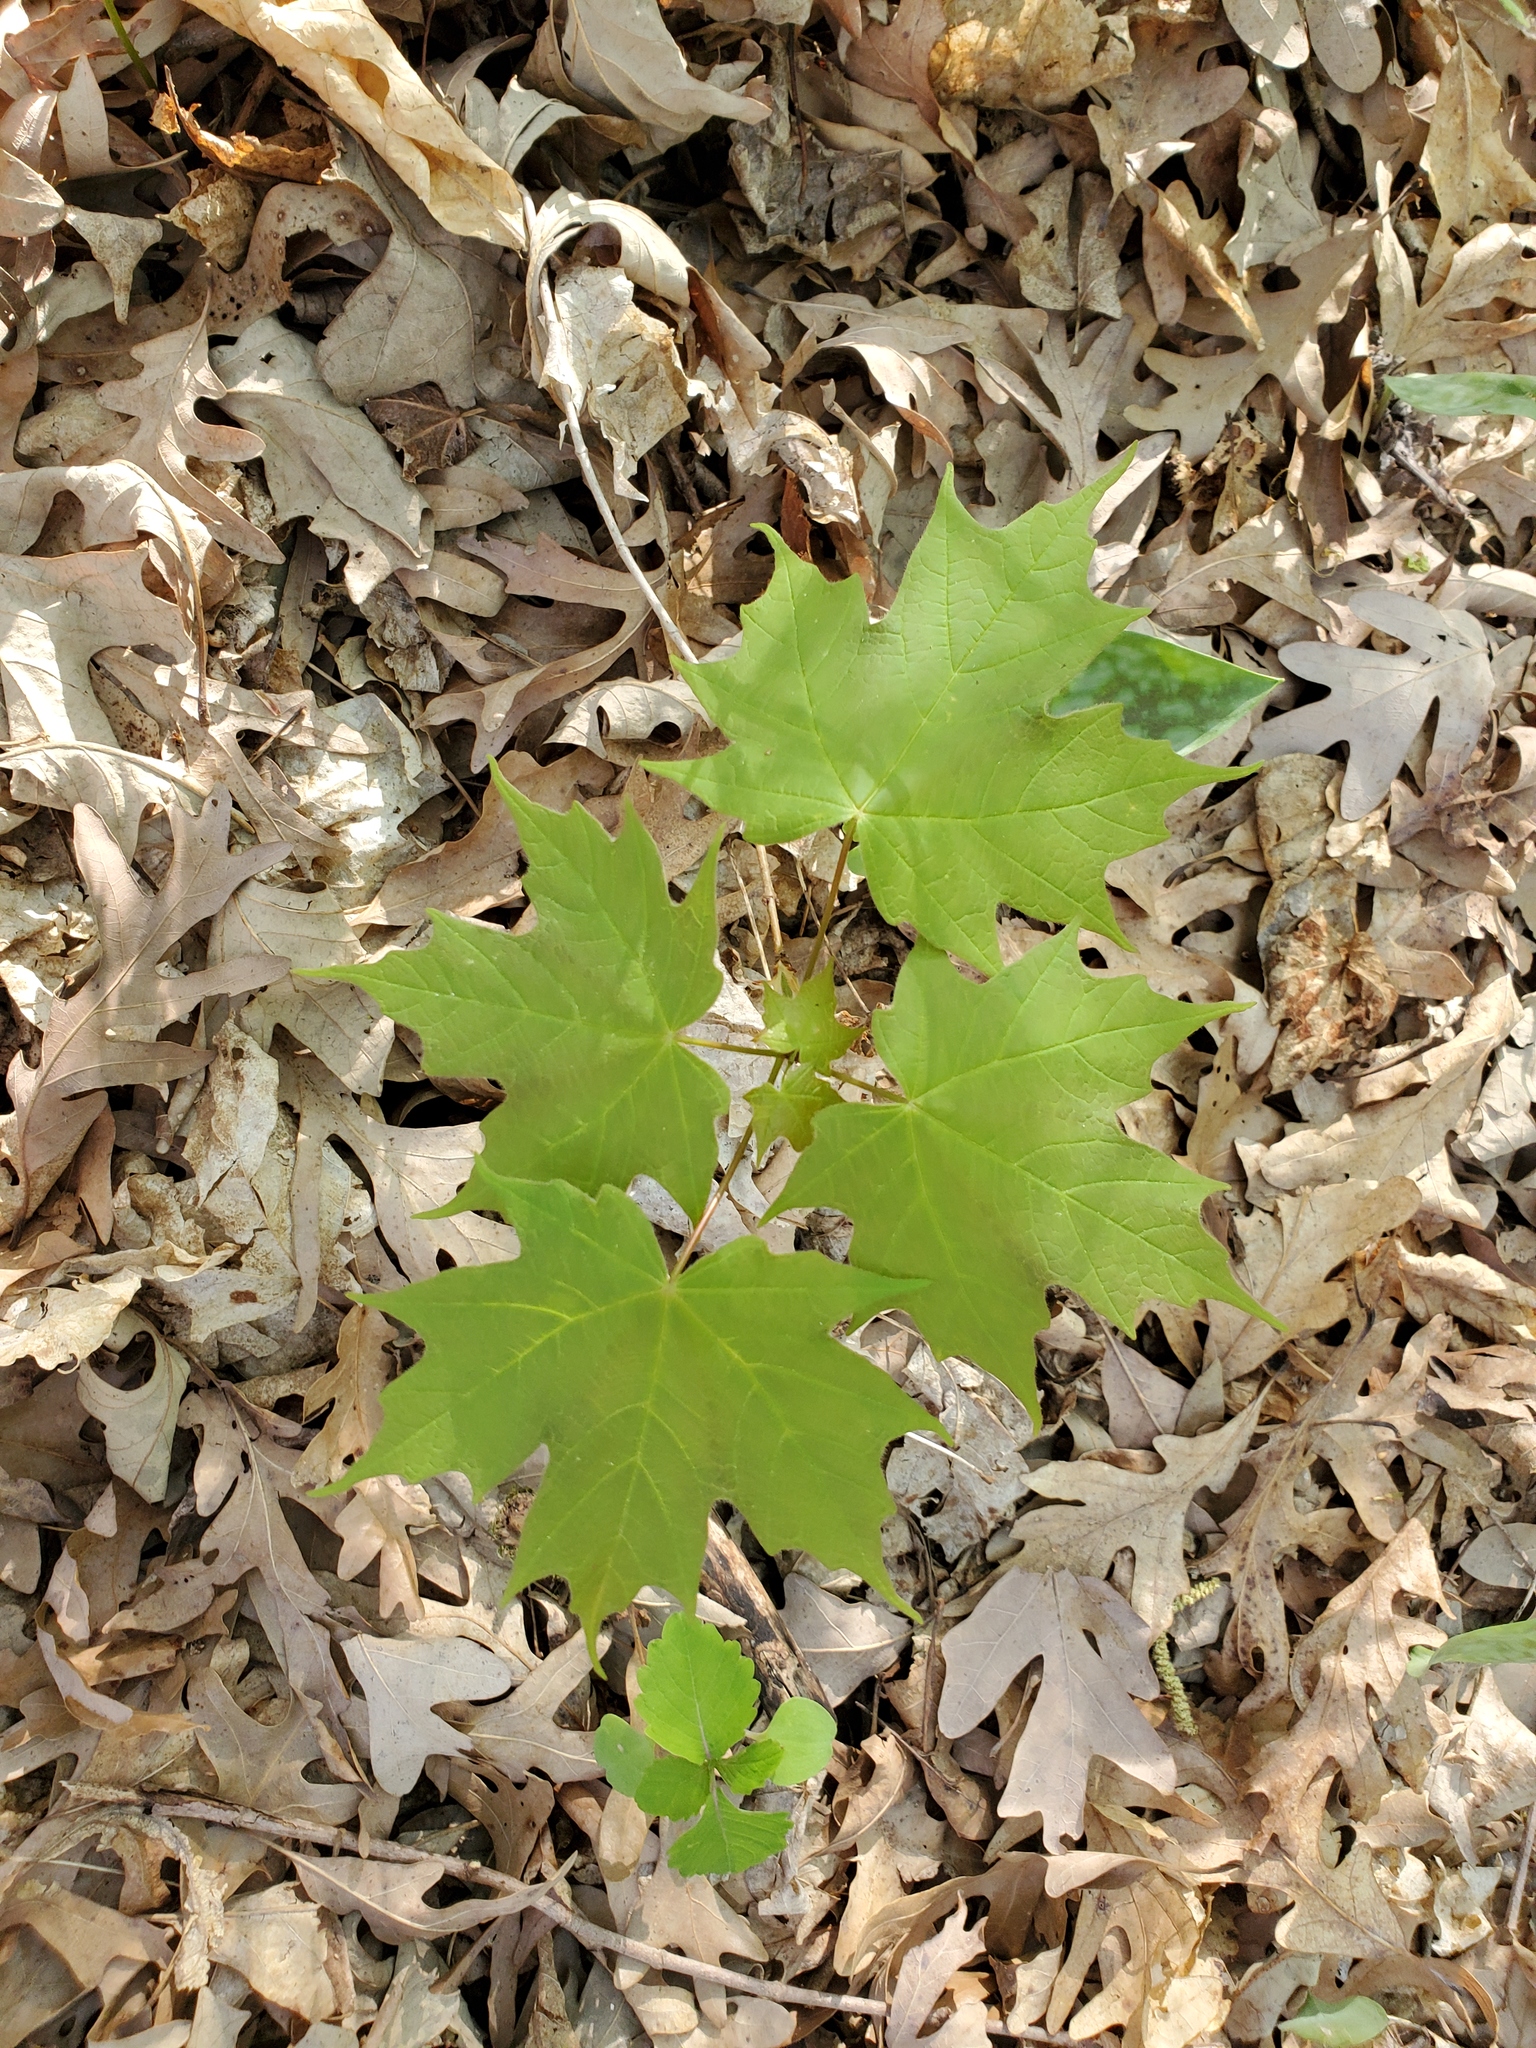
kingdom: Plantae
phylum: Tracheophyta
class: Magnoliopsida
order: Sapindales
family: Sapindaceae
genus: Acer
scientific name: Acer saccharum
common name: Sugar maple
